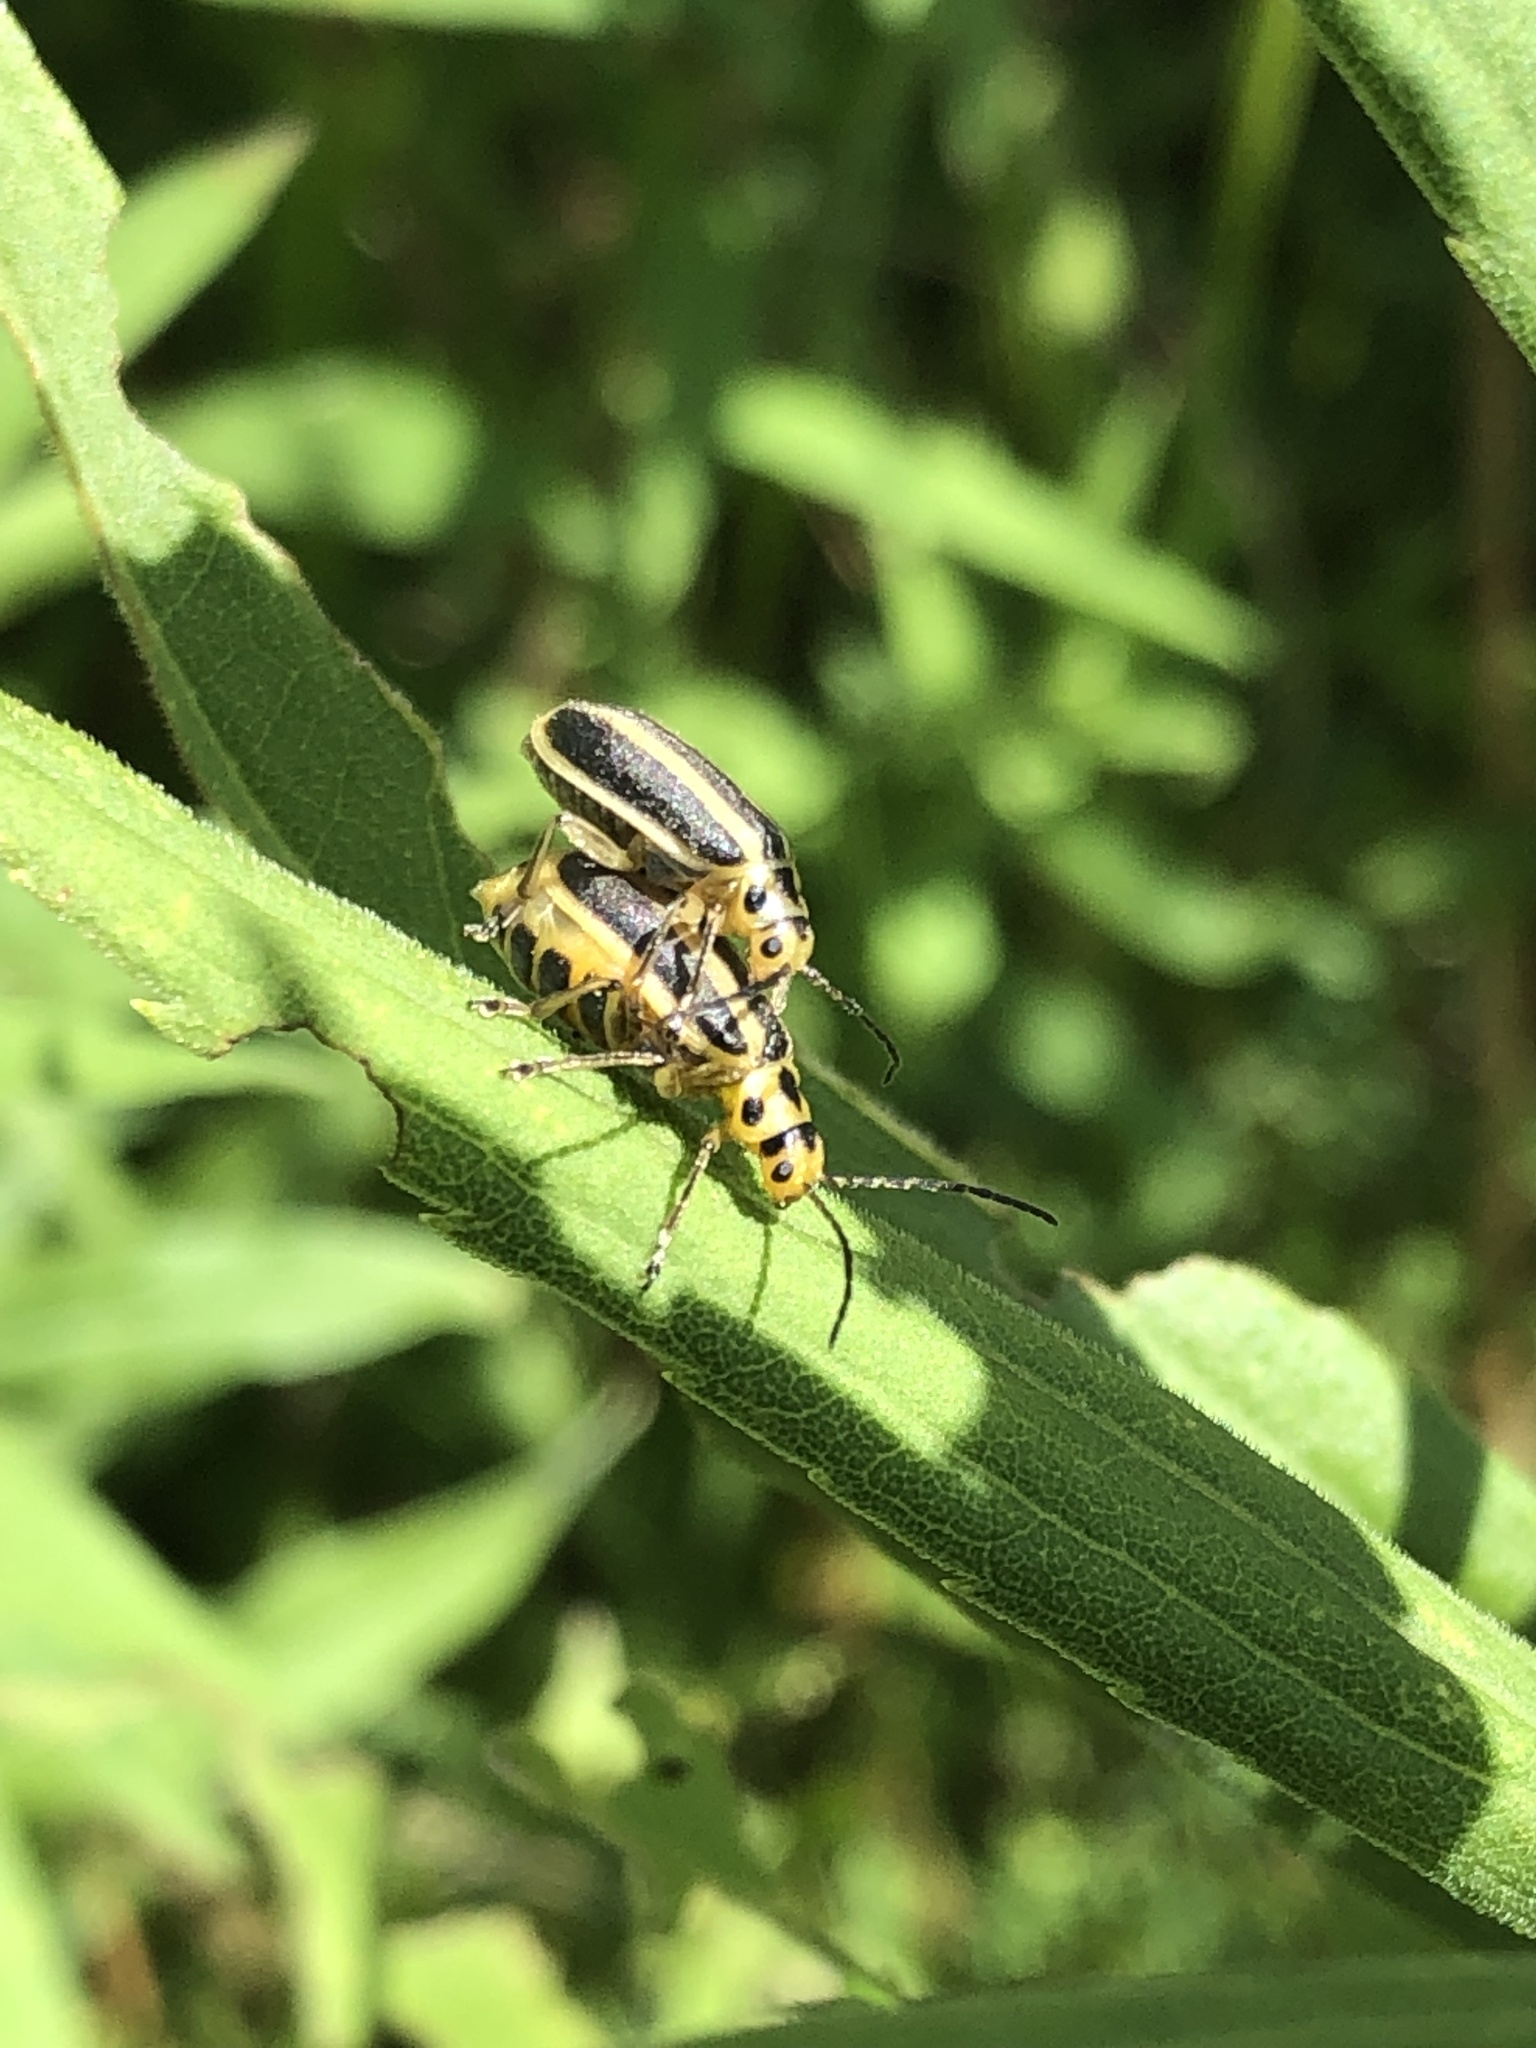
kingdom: Animalia
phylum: Arthropoda
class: Insecta
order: Coleoptera
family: Chrysomelidae
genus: Trirhabda
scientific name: Trirhabda canadensis
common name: Goldenrod leaf beetle
